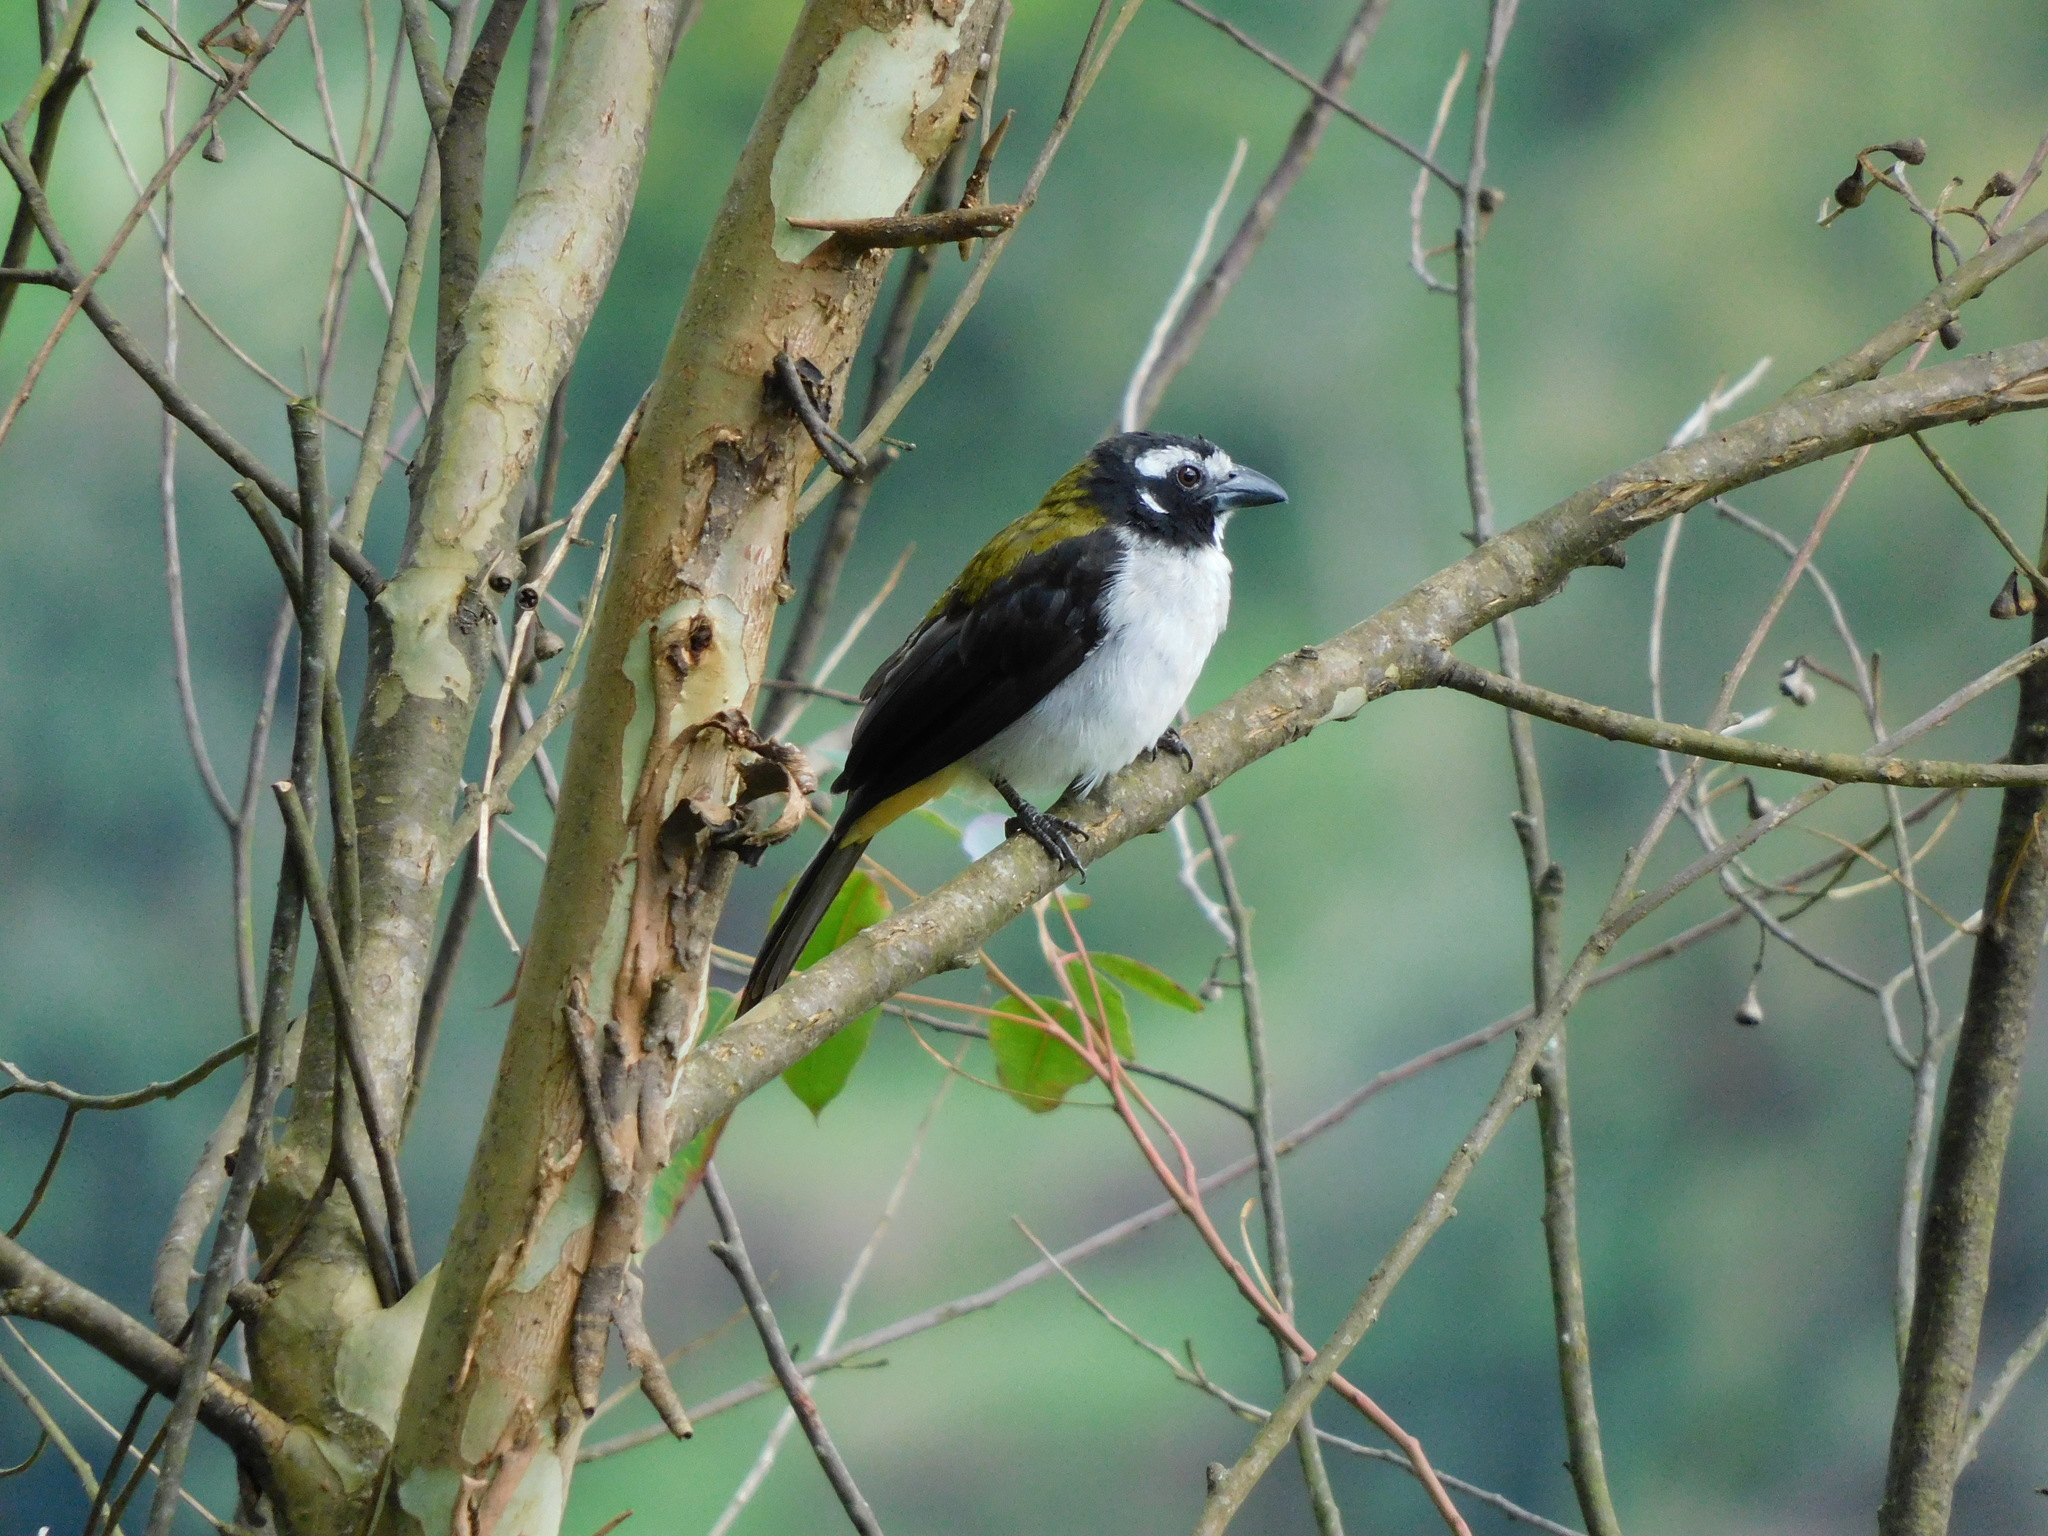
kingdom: Animalia
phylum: Chordata
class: Aves
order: Passeriformes
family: Thraupidae
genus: Saltator
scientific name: Saltator atripennis
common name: Black-winged saltator
